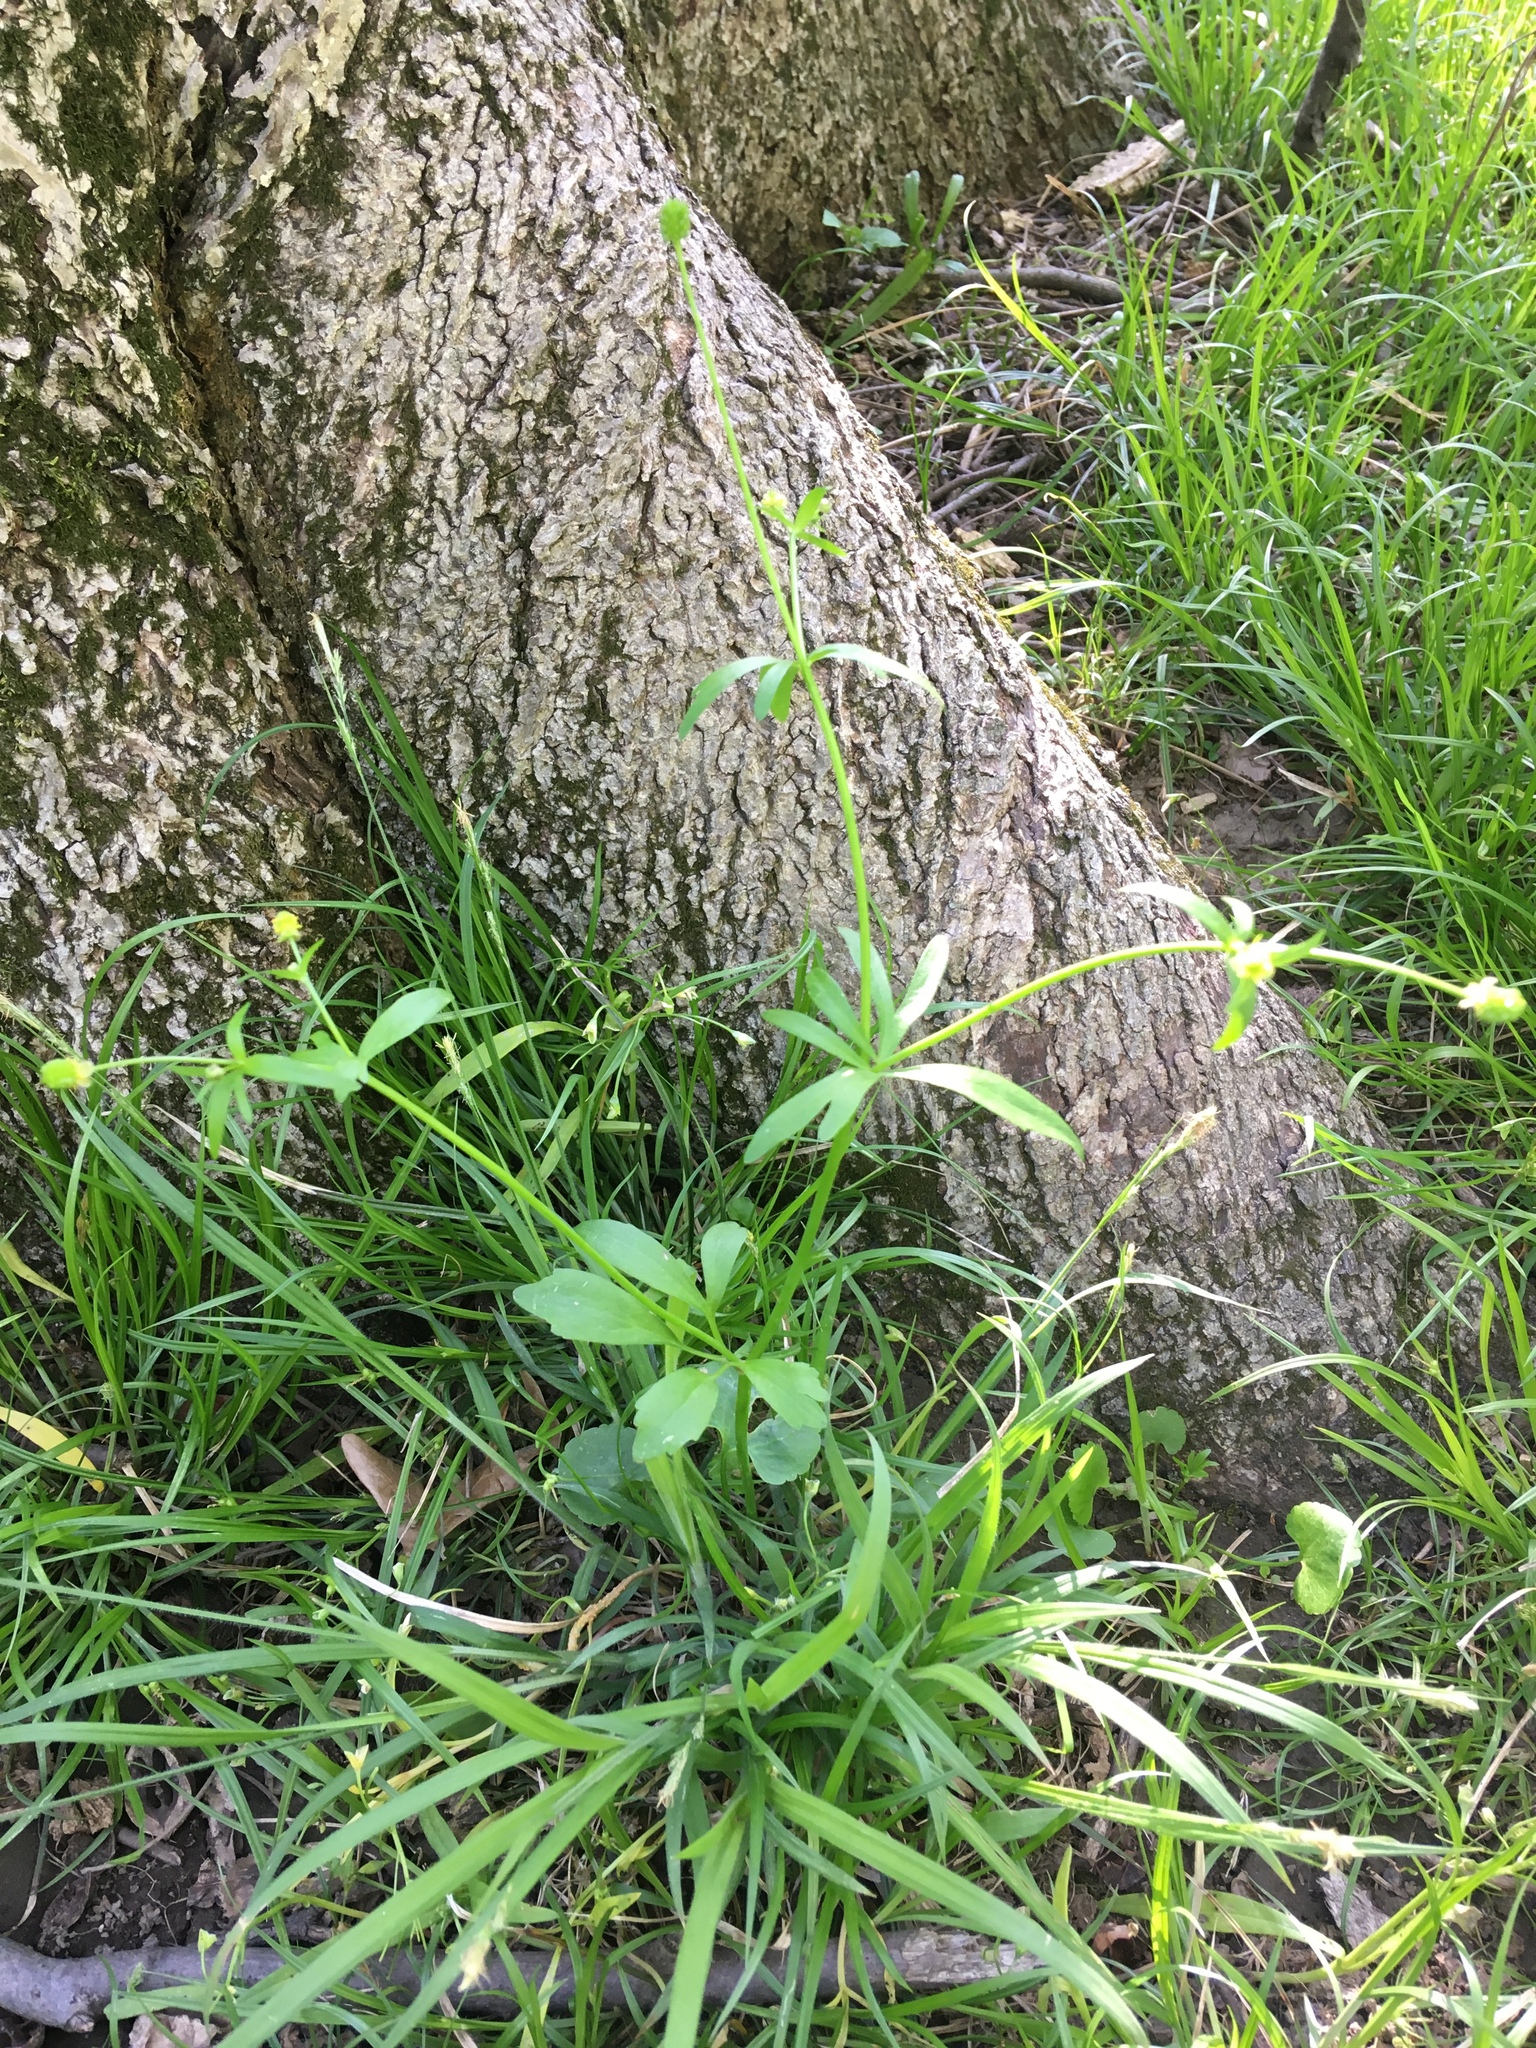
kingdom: Plantae
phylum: Tracheophyta
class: Magnoliopsida
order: Ranunculales
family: Ranunculaceae
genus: Ranunculus
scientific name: Ranunculus abortivus
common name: Early wood buttercup
